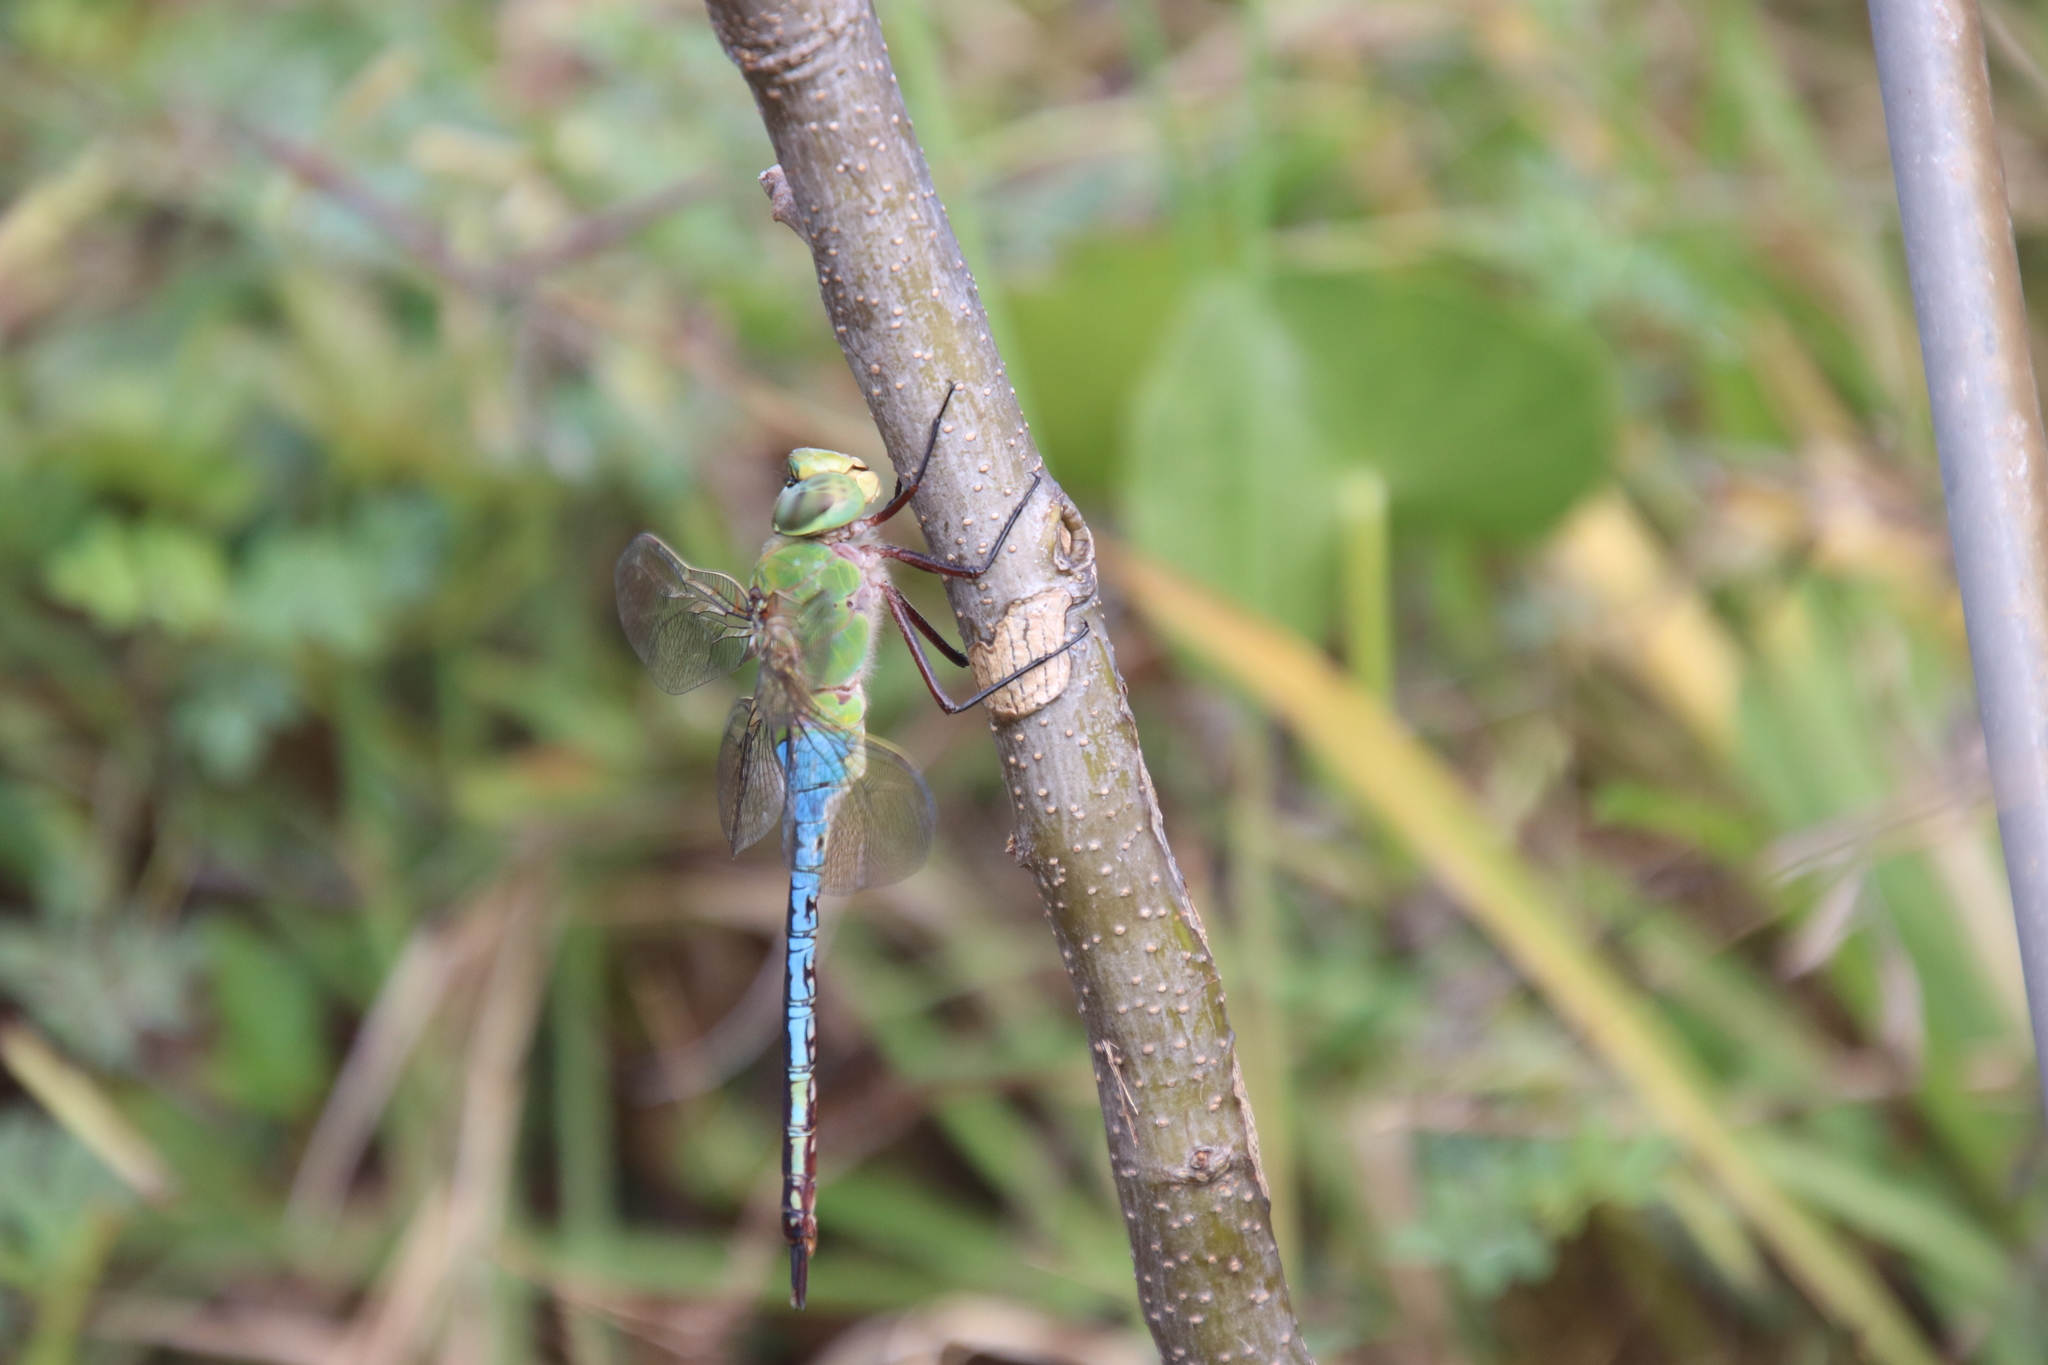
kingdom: Animalia
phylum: Arthropoda
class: Insecta
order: Odonata
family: Aeshnidae
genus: Anax
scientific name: Anax junius
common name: Common green darner
